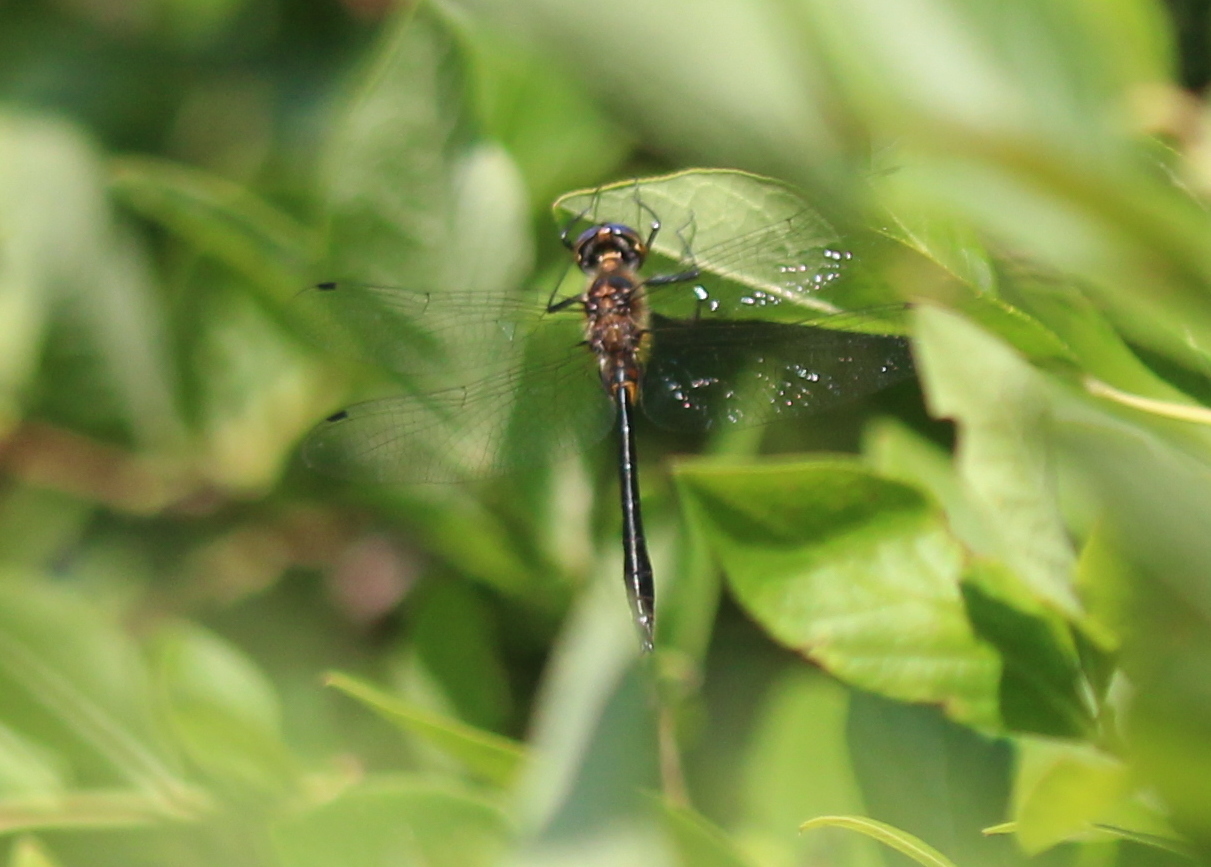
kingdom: Animalia
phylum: Arthropoda
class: Insecta
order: Odonata
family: Corduliidae
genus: Dorocordulia
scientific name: Dorocordulia libera
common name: Racket-tailed emerald
